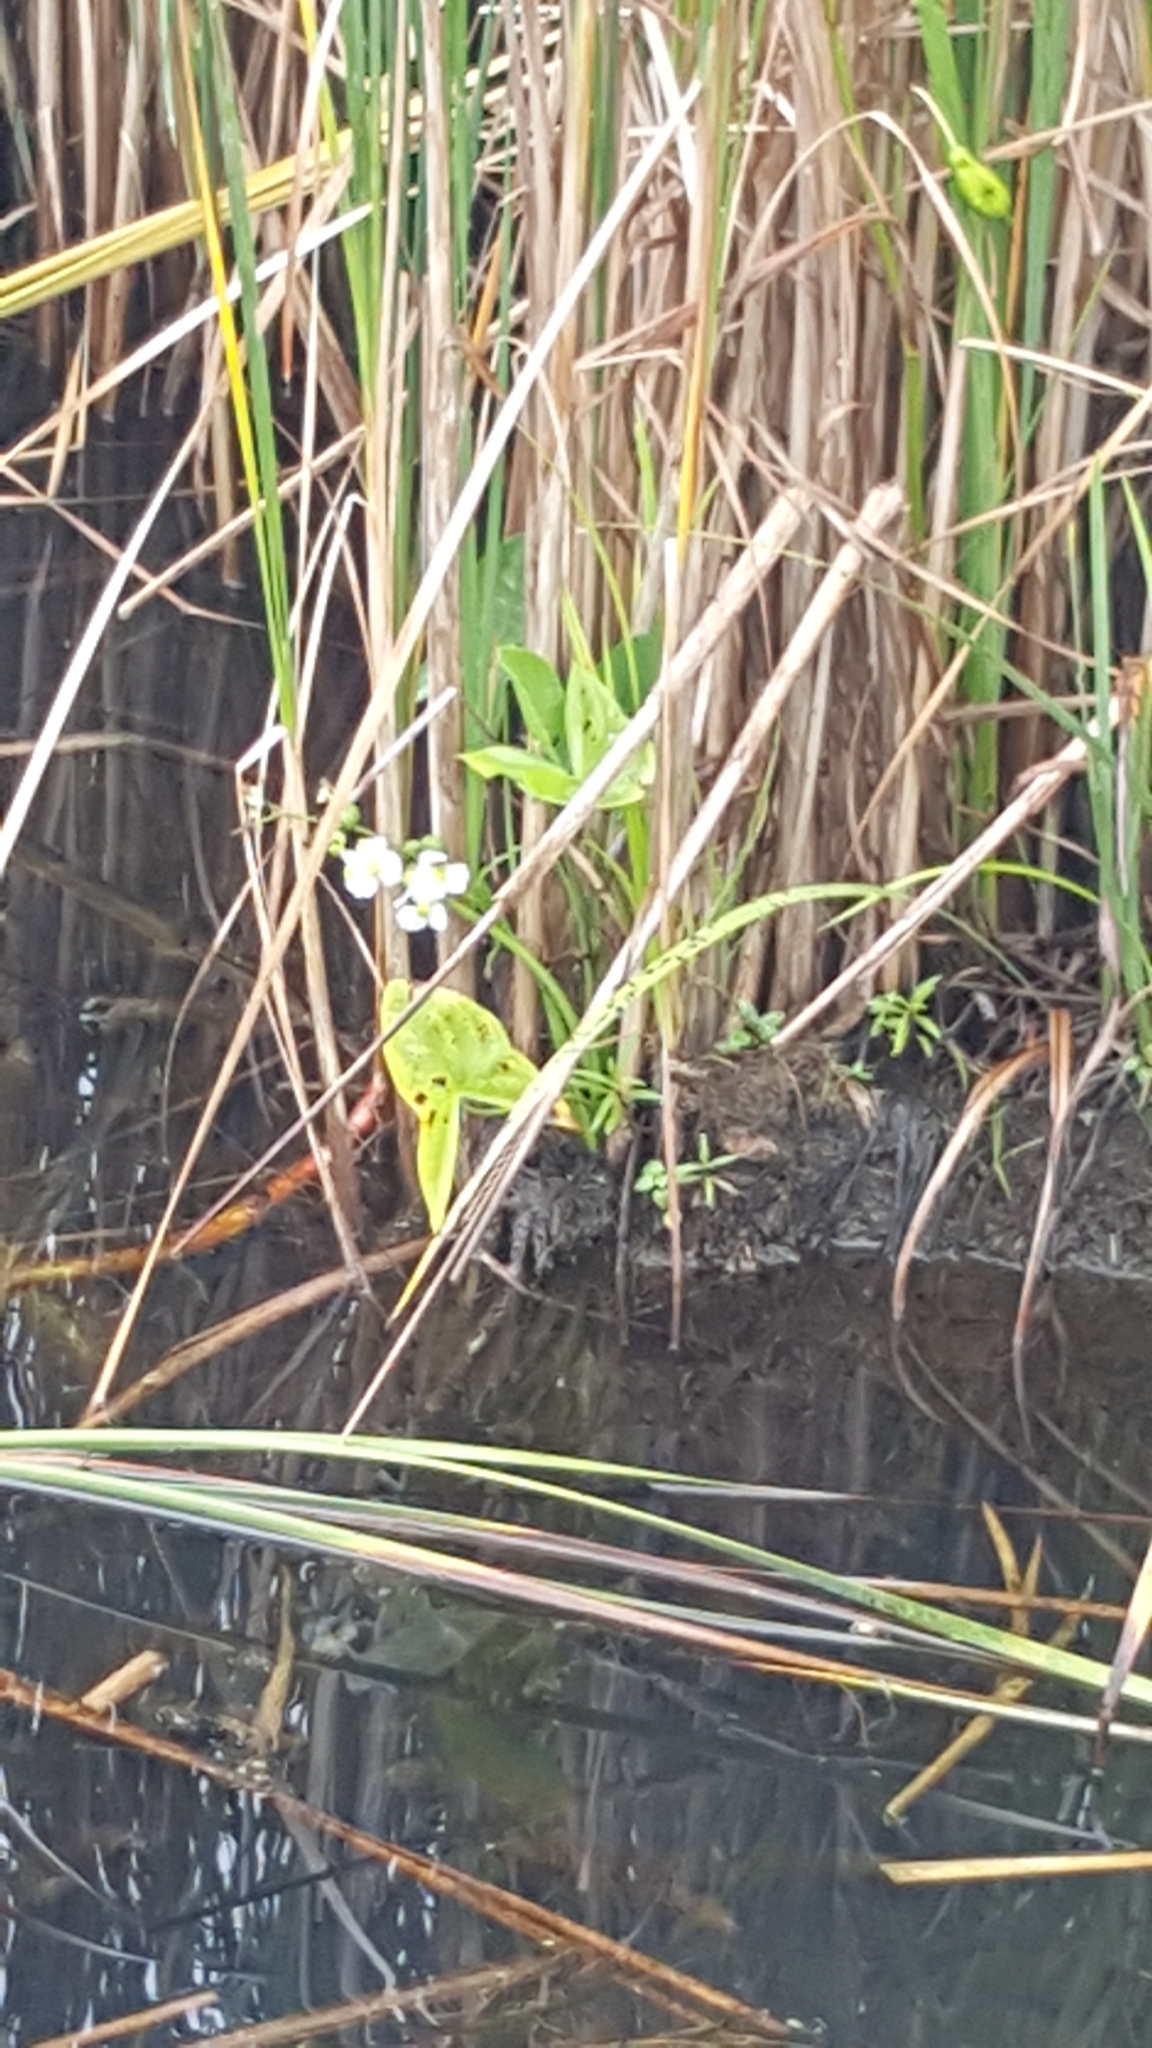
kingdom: Plantae
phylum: Tracheophyta
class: Liliopsida
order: Alismatales
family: Alismataceae
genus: Sagittaria
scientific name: Sagittaria latifolia
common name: Duck-potato
